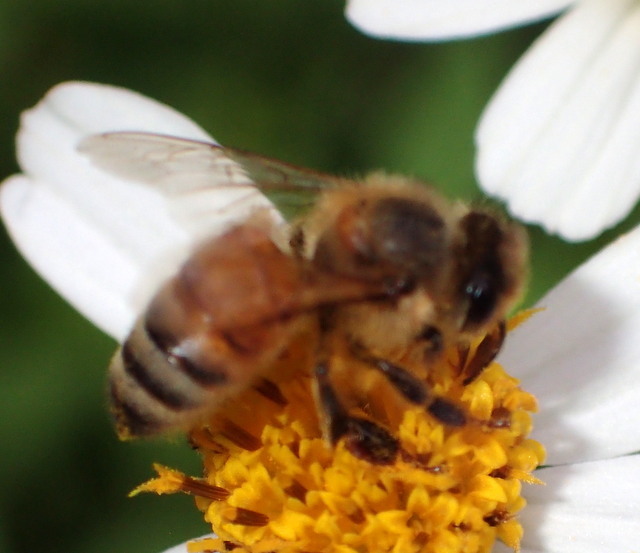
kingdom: Animalia
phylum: Arthropoda
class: Insecta
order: Hymenoptera
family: Apidae
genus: Apis
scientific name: Apis mellifera
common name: Honey bee
